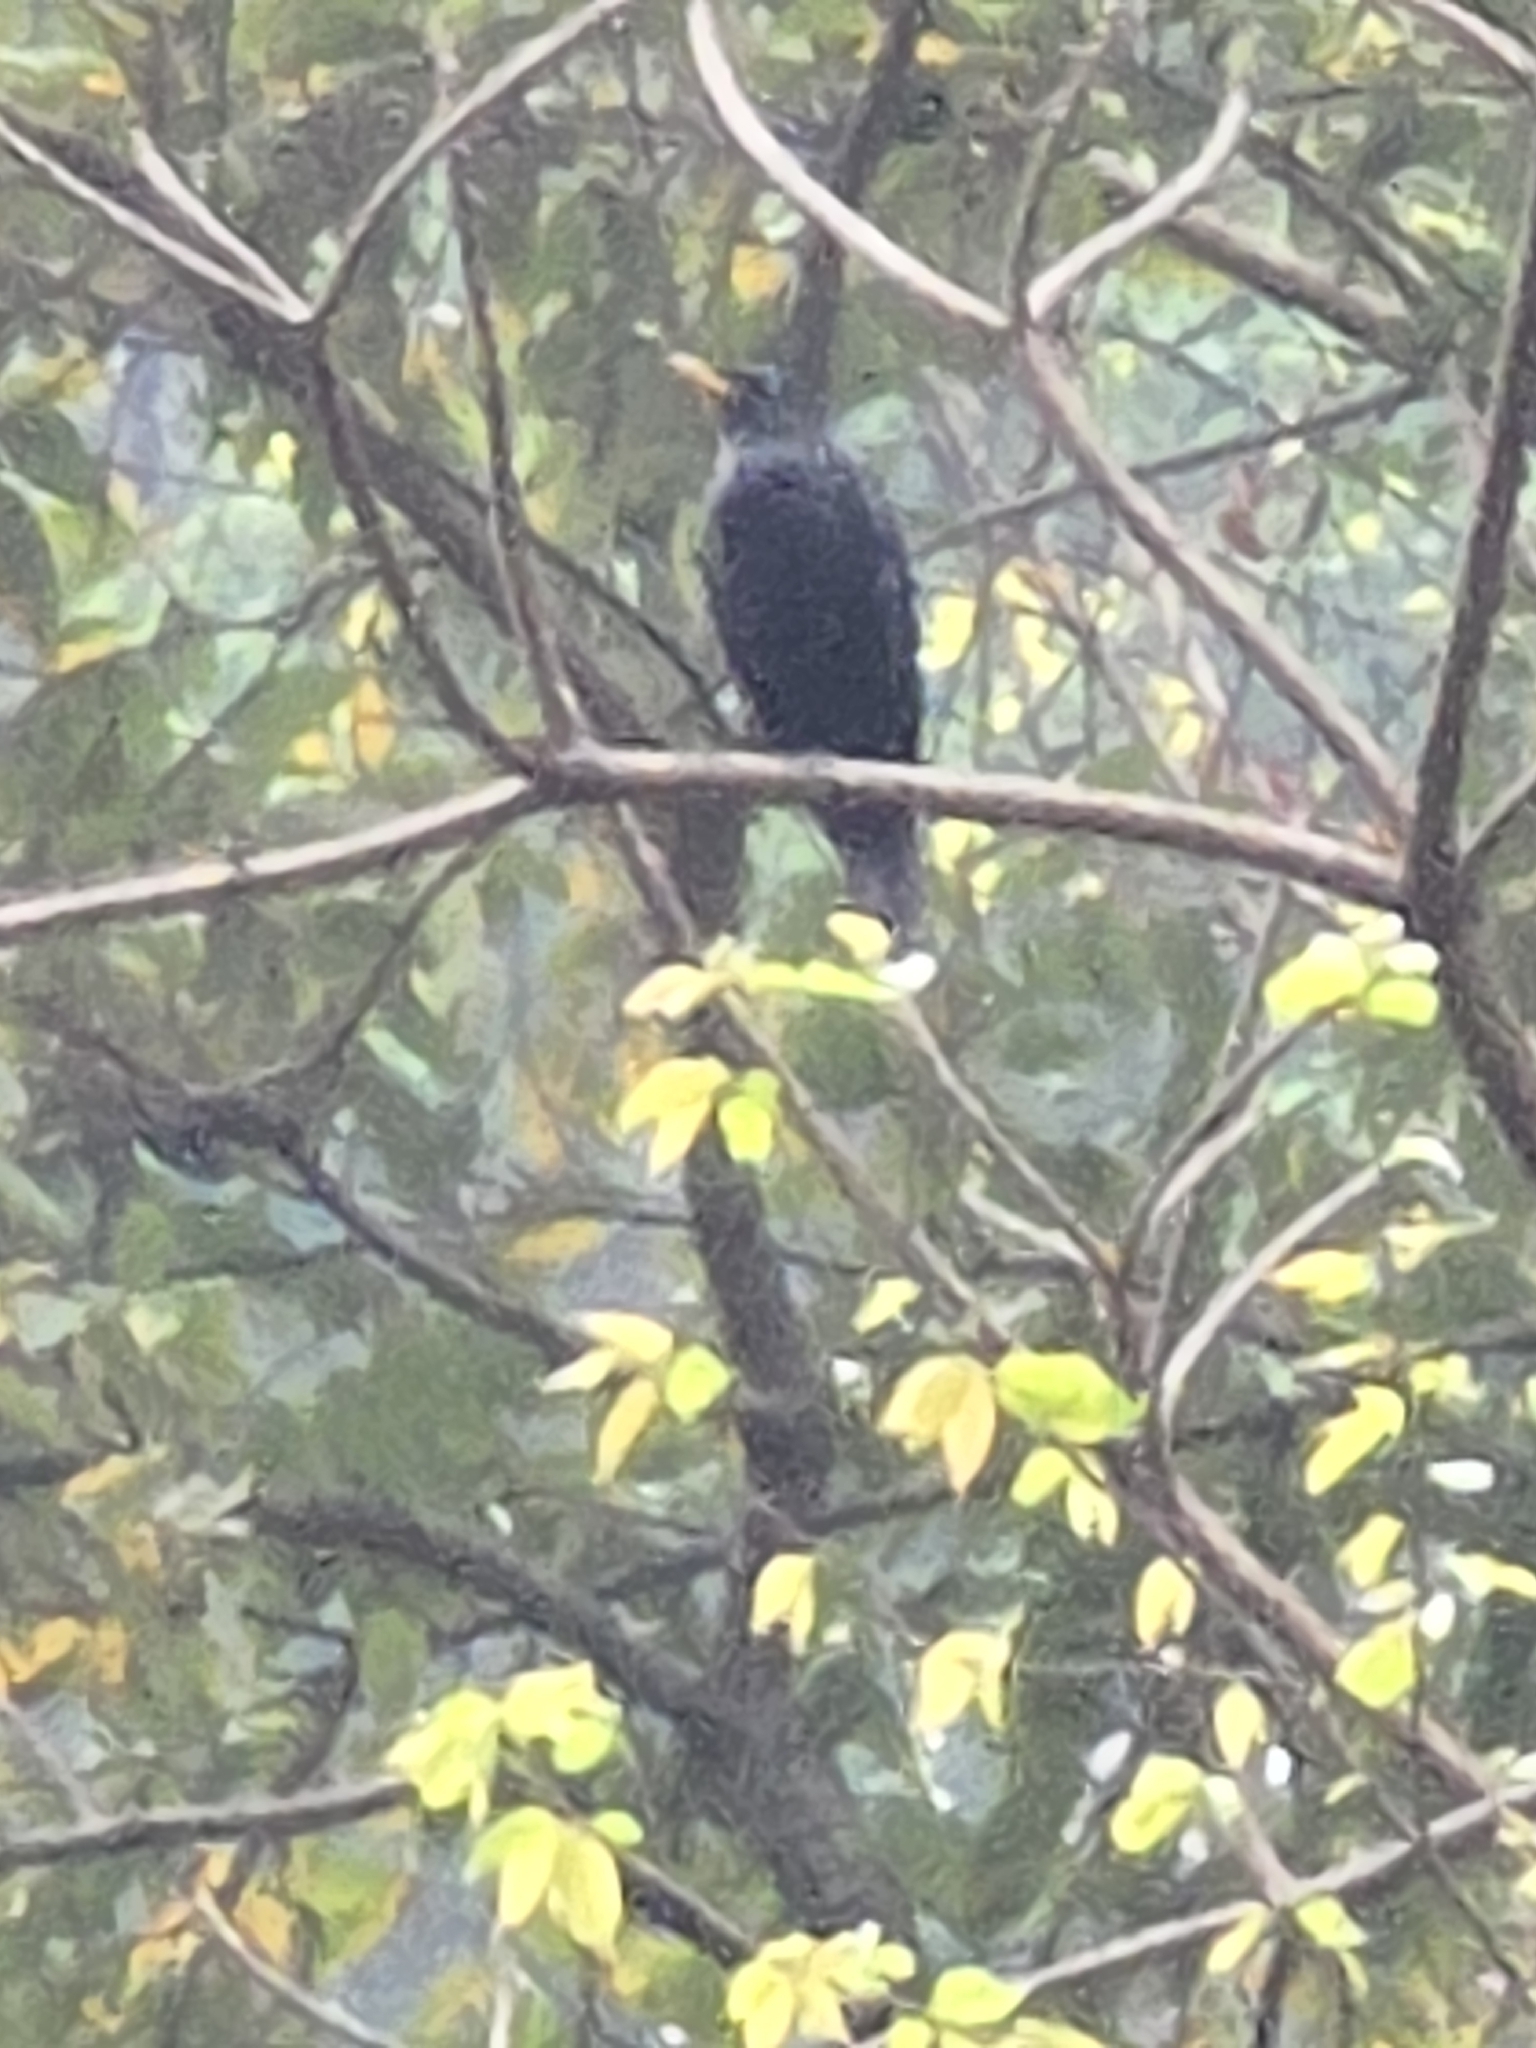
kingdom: Animalia
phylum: Chordata
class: Aves
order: Passeriformes
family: Muscicapidae
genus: Myophonus
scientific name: Myophonus caeruleus
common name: Blue whistling-thrush
